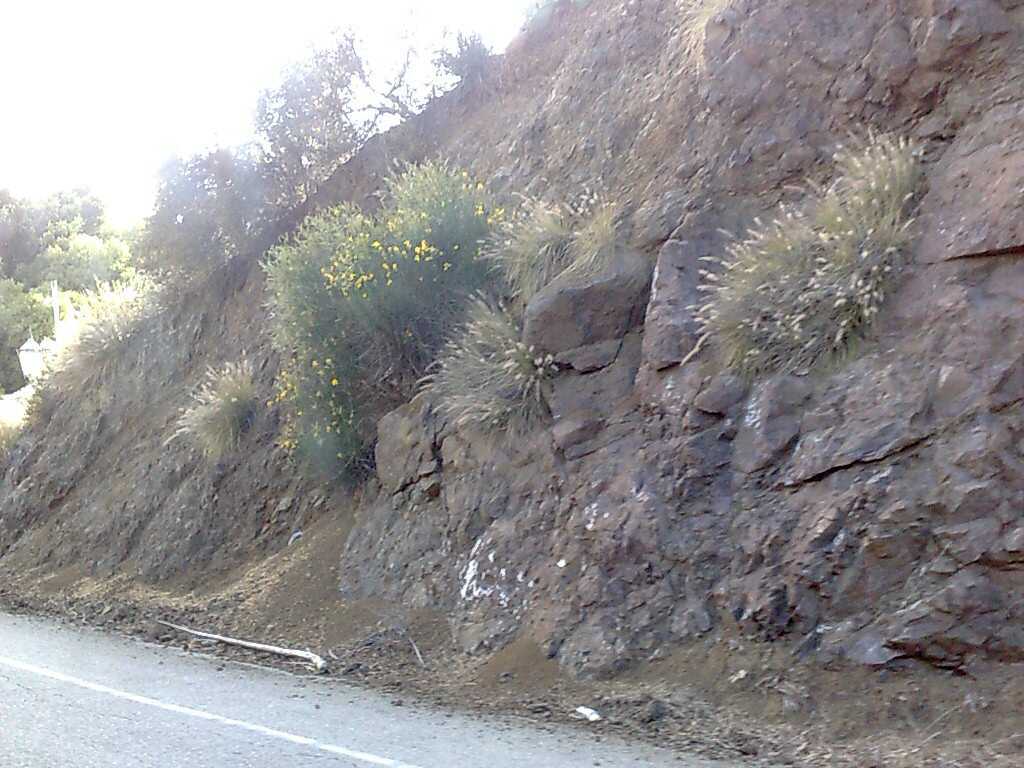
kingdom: Plantae
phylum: Tracheophyta
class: Magnoliopsida
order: Fabales
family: Fabaceae
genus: Spartium
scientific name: Spartium junceum
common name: Spanish broom
